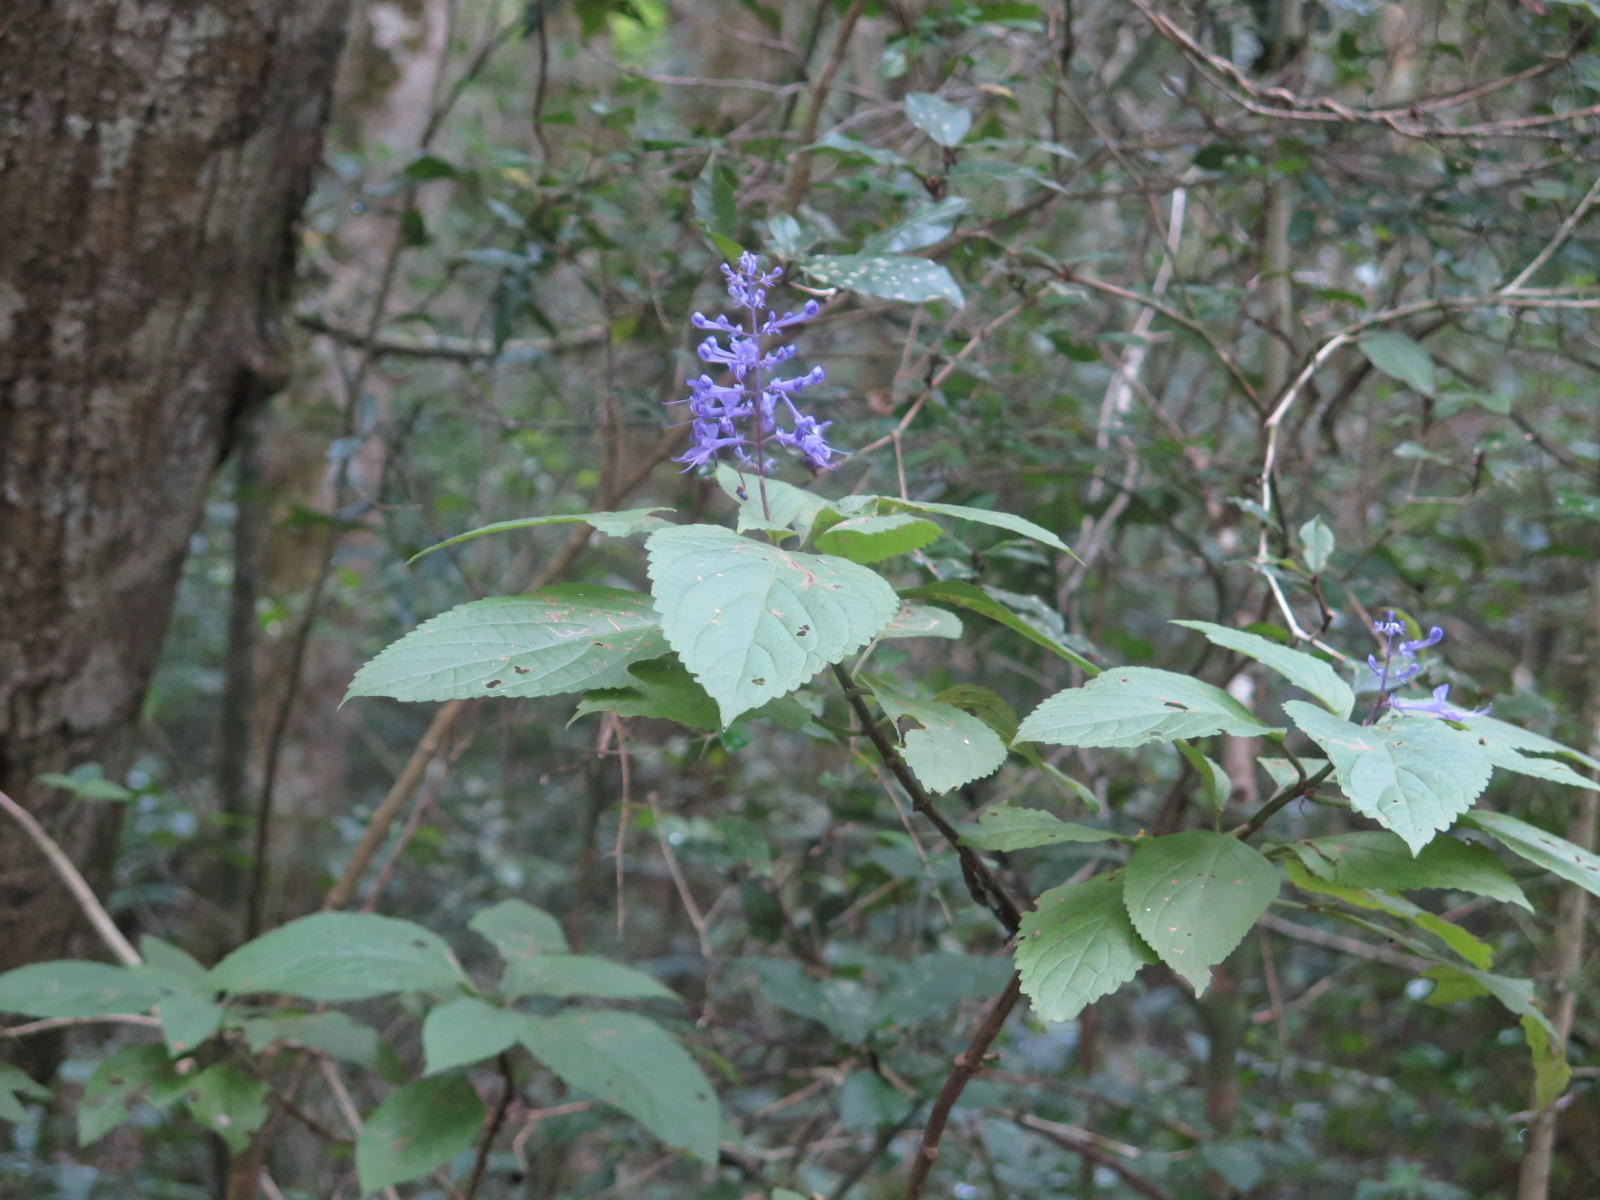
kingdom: Plantae
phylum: Tracheophyta
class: Magnoliopsida
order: Lamiales
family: Lamiaceae
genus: Plectranthus
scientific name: Plectranthus ecklonii
